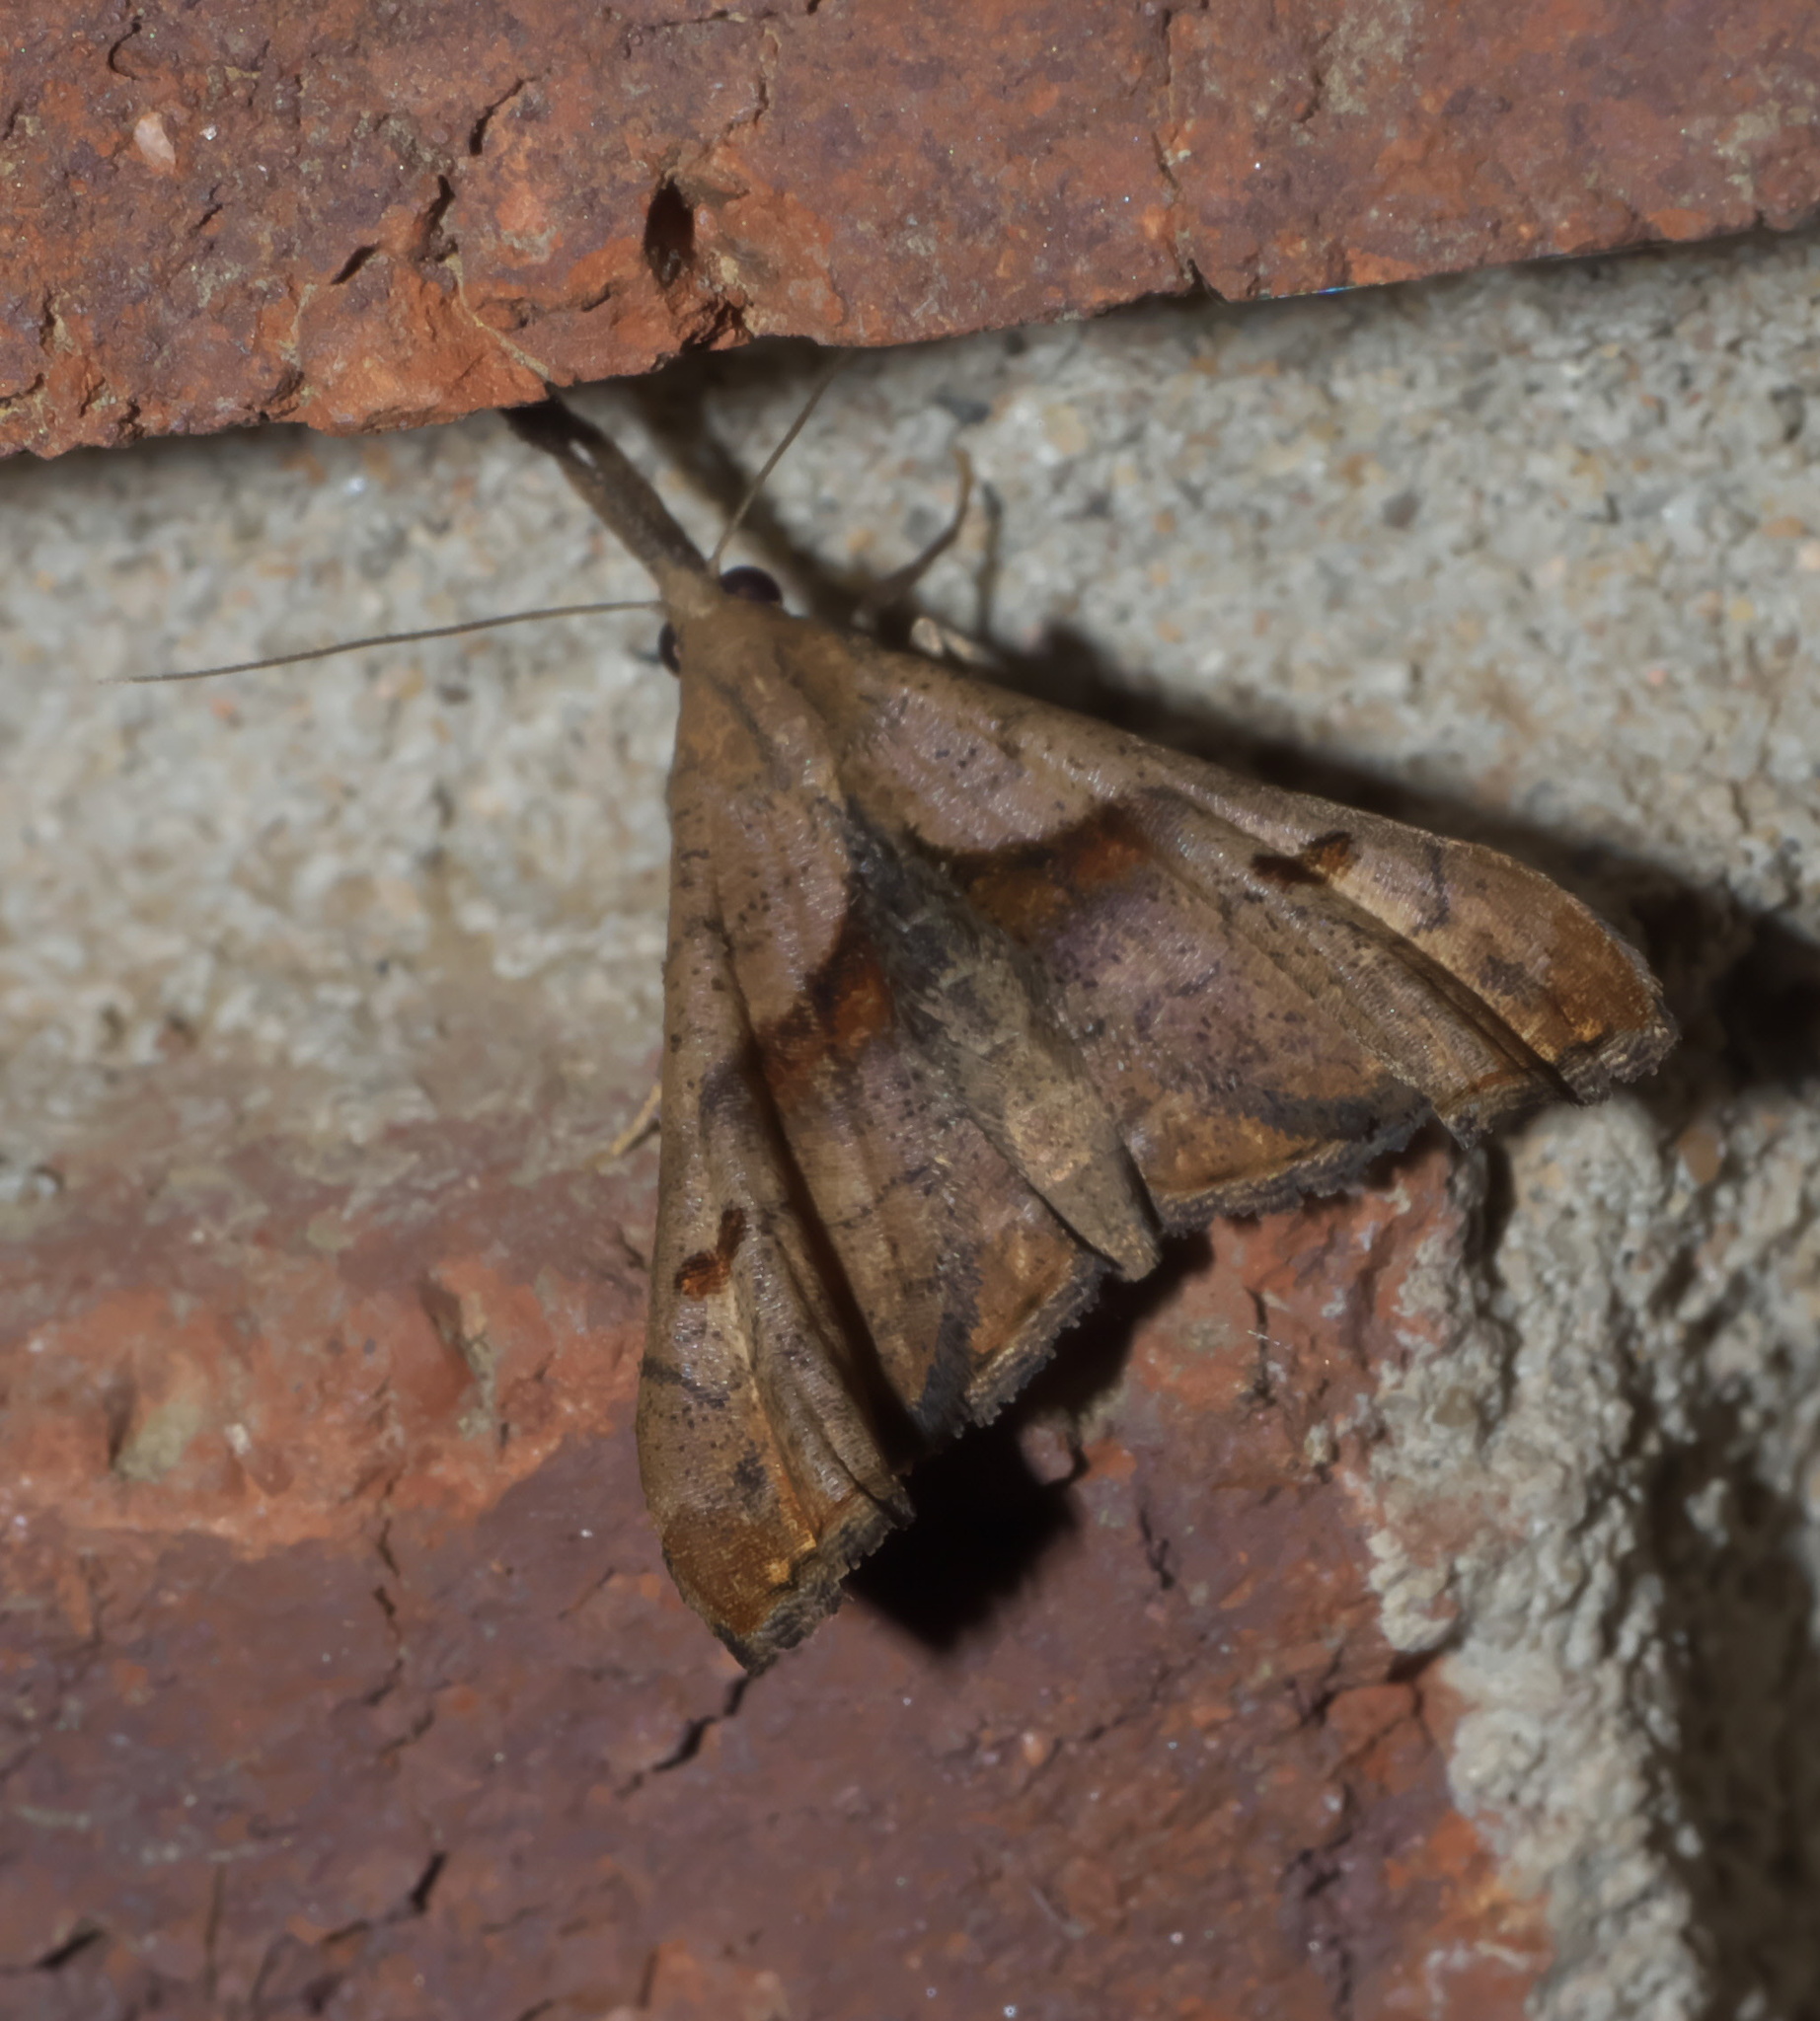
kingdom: Animalia
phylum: Arthropoda
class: Insecta
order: Lepidoptera
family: Erebidae
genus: Palthis
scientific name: Palthis angulalis
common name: Dark-spotted palthis moth
